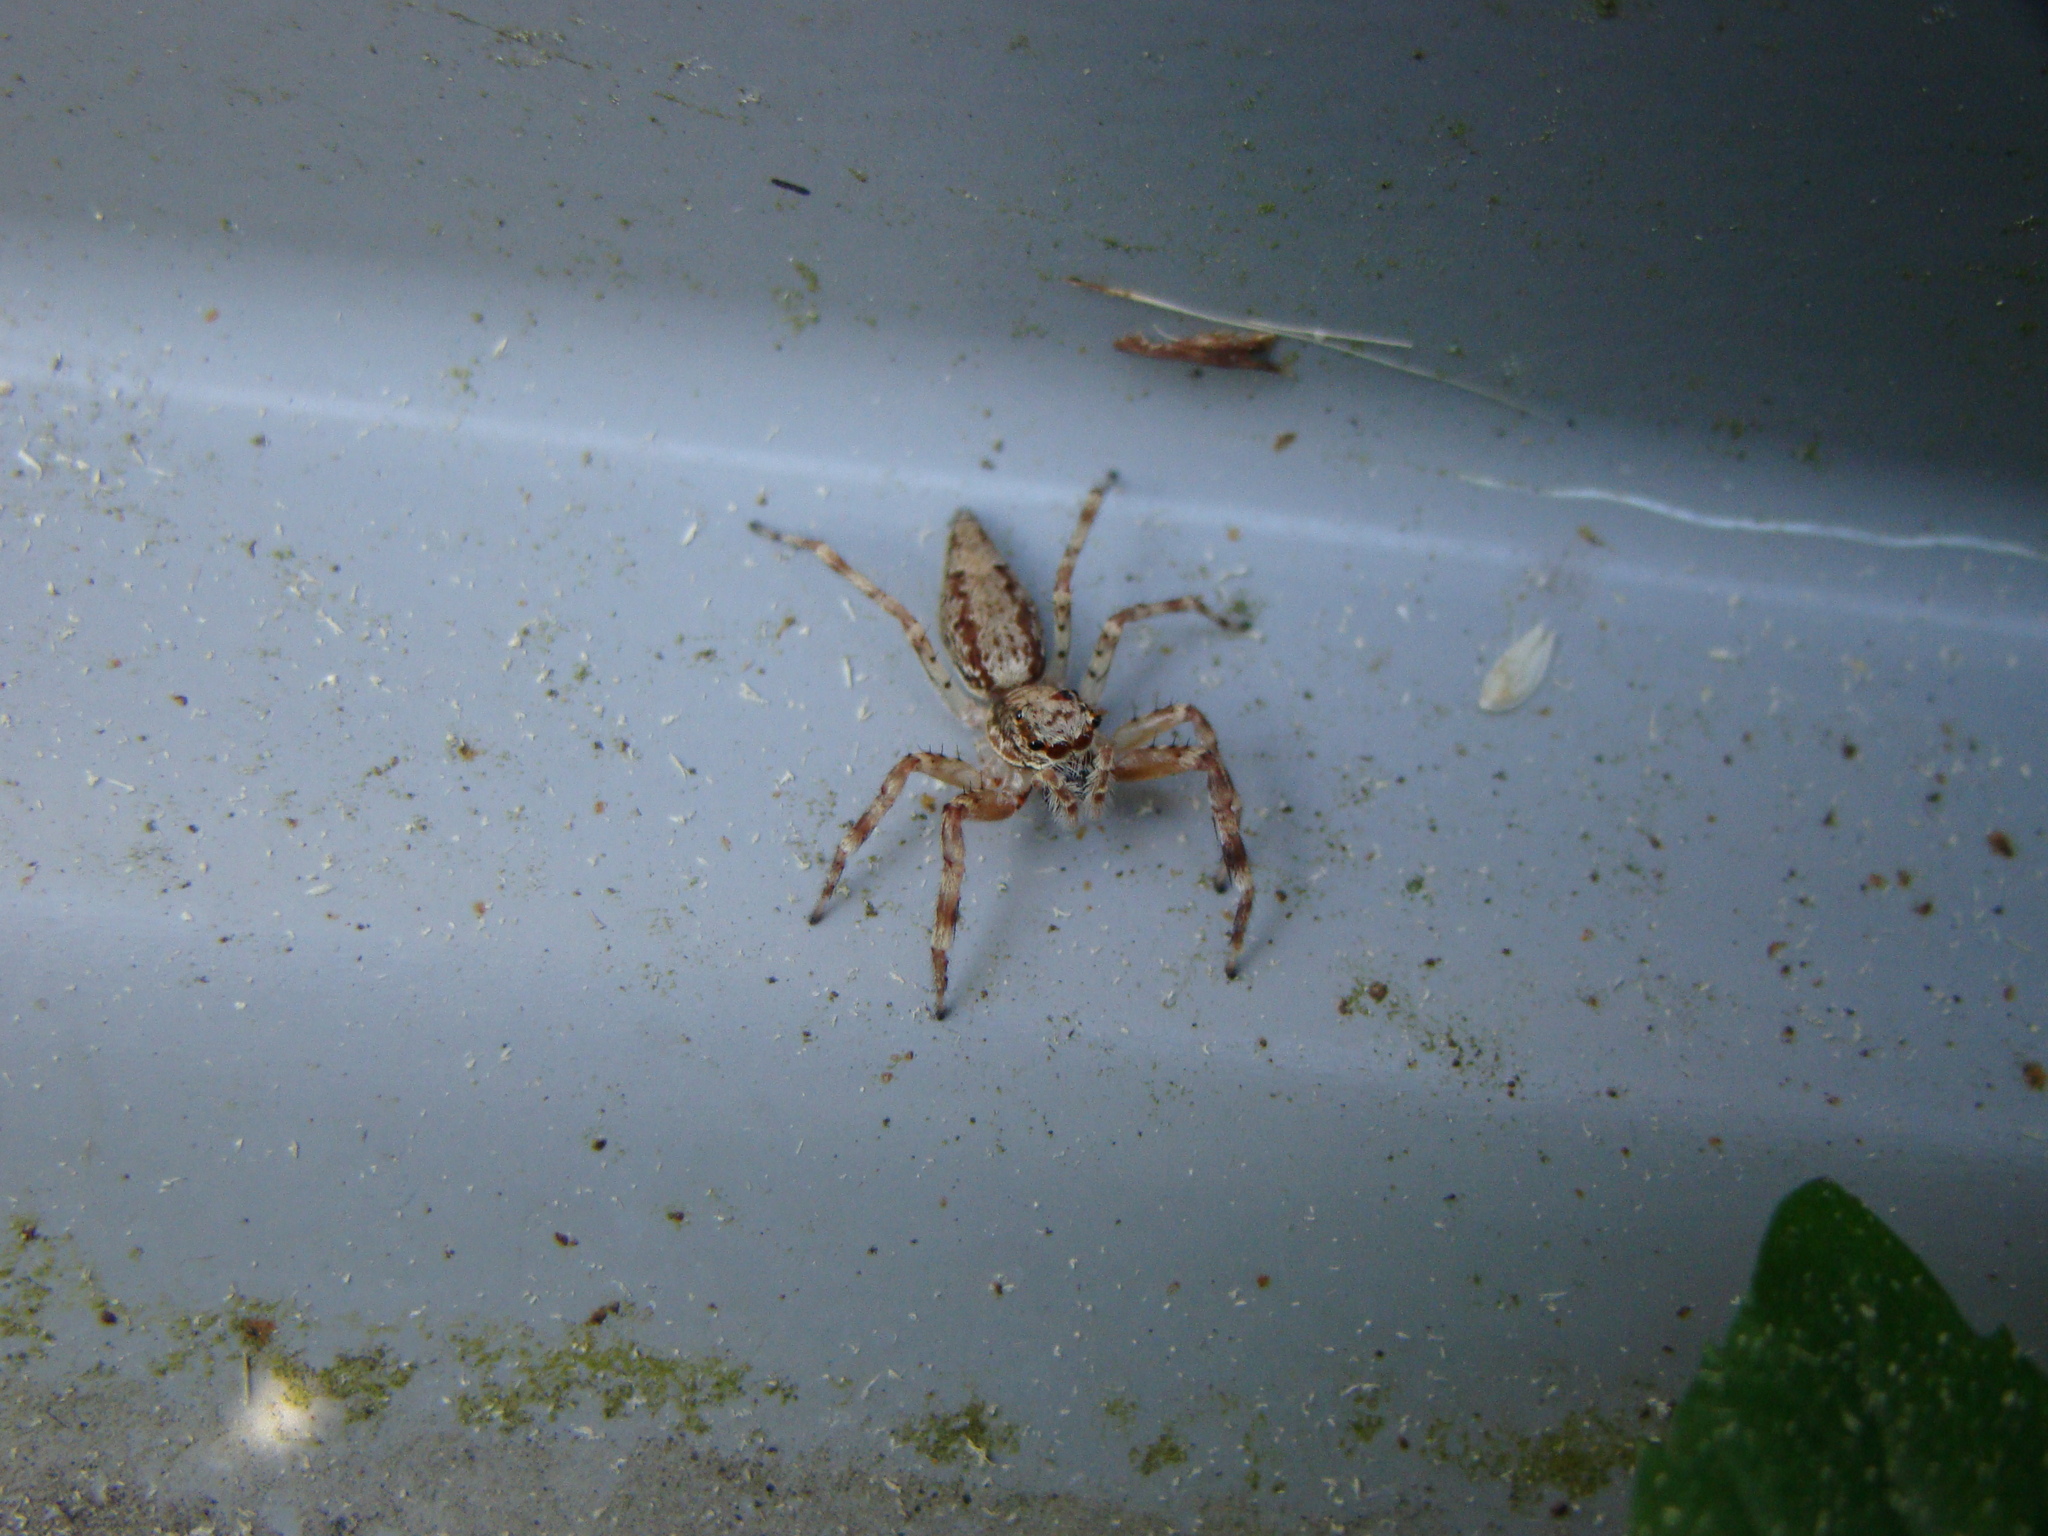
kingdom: Animalia
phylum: Arthropoda
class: Arachnida
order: Araneae
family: Salticidae
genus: Helpis
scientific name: Helpis minitabunda
